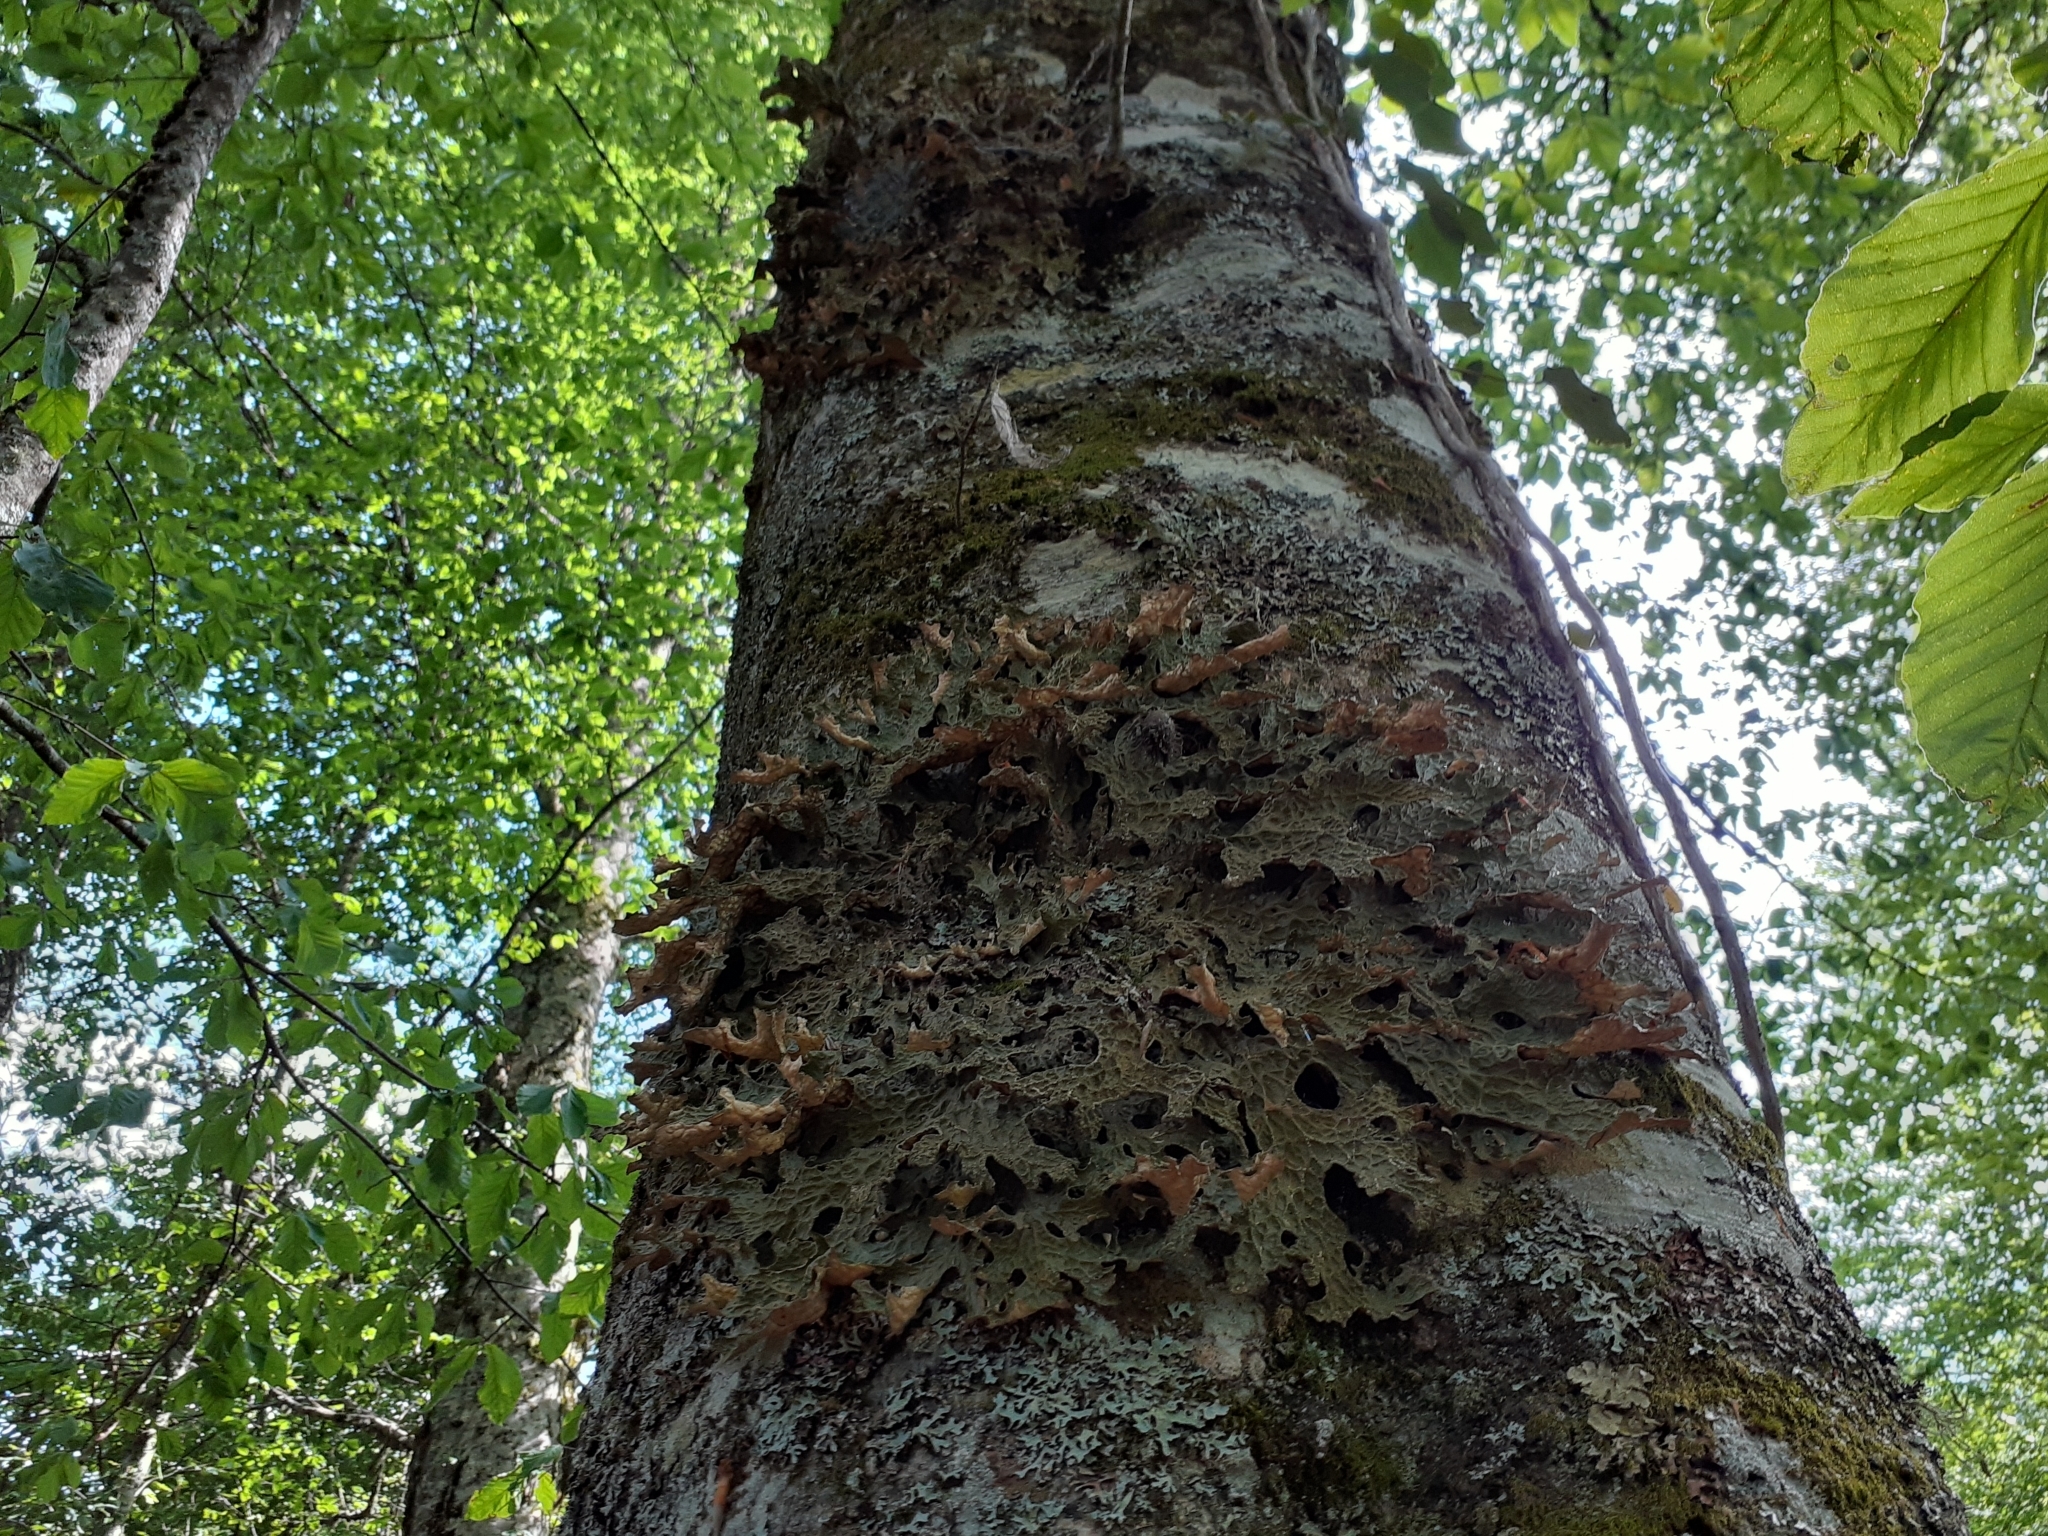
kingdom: Fungi
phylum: Ascomycota
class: Lecanoromycetes
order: Peltigerales
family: Lobariaceae
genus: Lobaria
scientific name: Lobaria pulmonaria
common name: Lungwort
